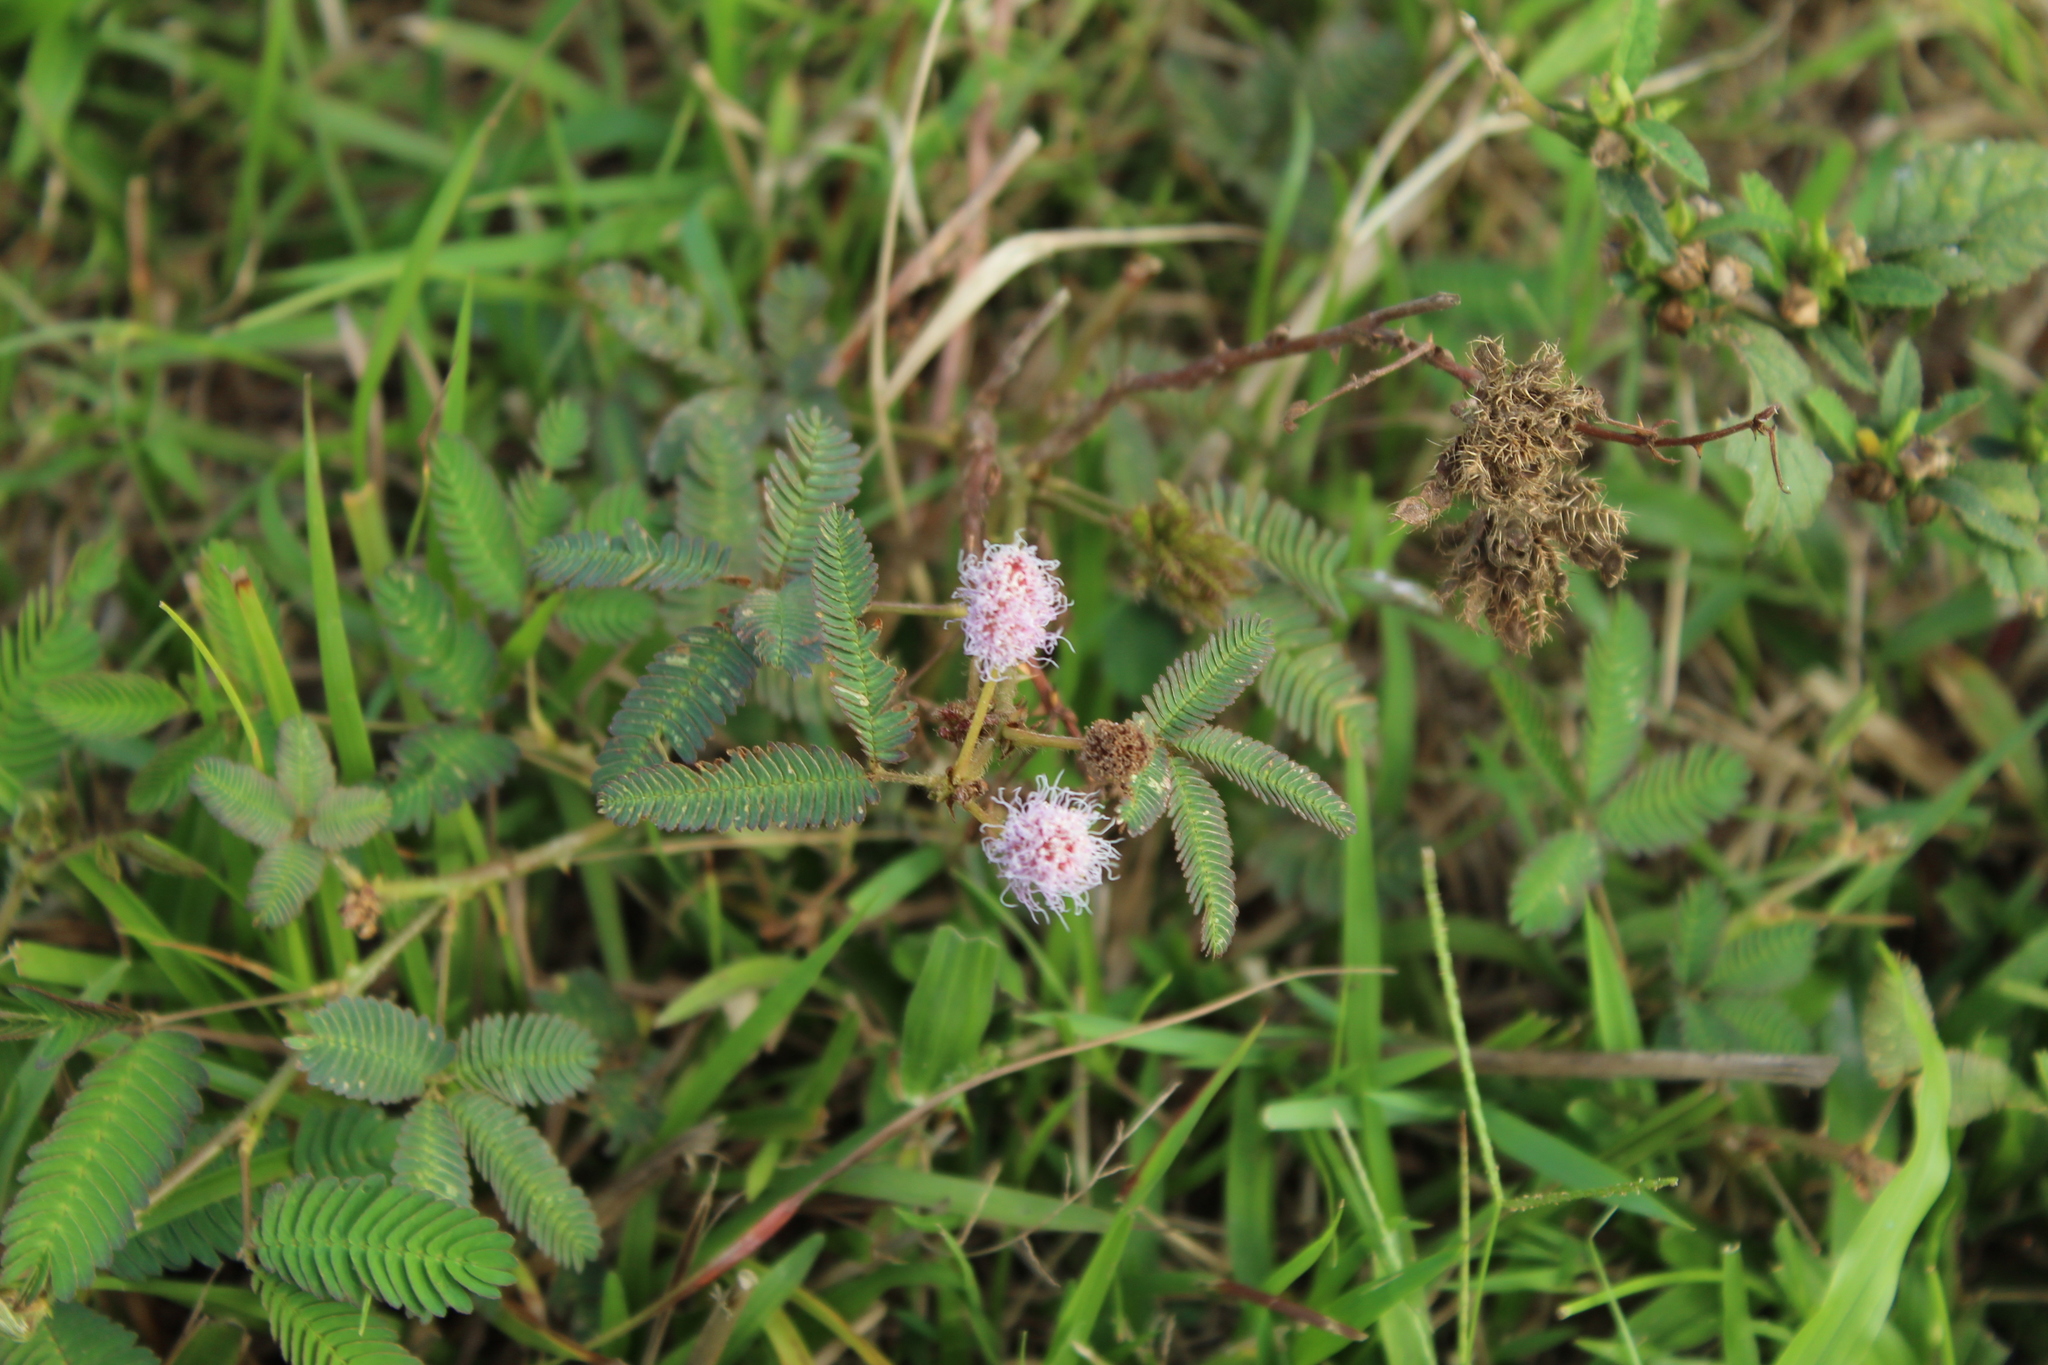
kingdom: Plantae
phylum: Tracheophyta
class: Magnoliopsida
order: Fabales
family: Fabaceae
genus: Mimosa
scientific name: Mimosa pudica
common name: Sensitive plant
